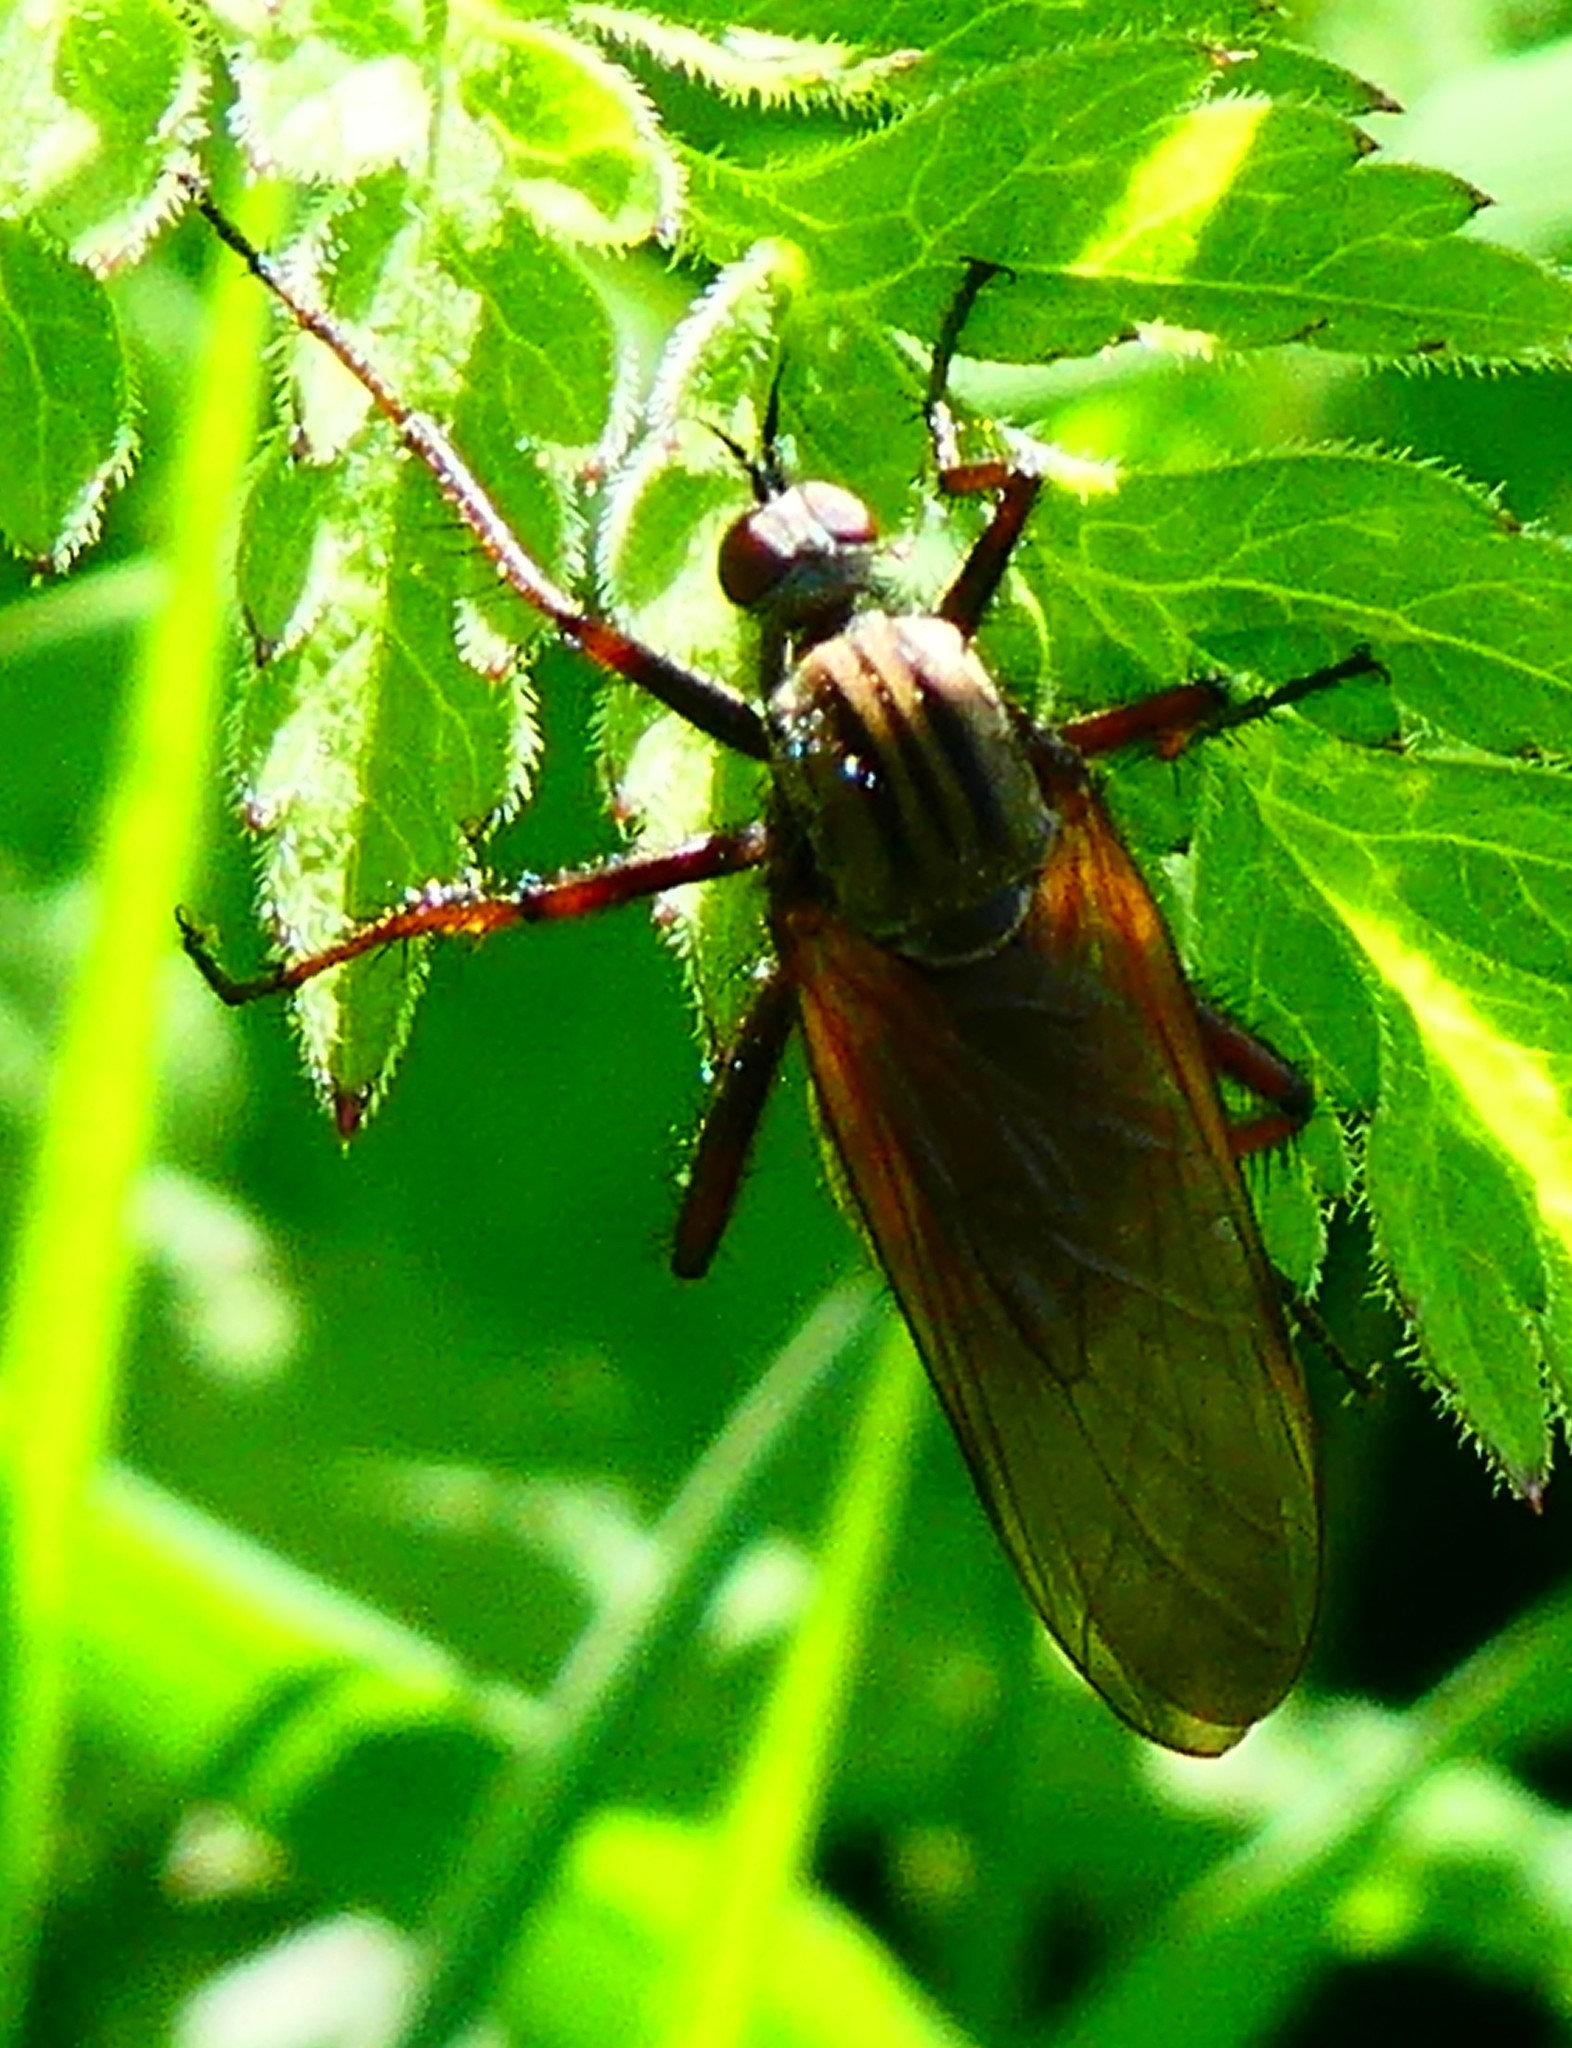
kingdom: Animalia
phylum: Arthropoda
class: Insecta
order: Diptera
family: Empididae
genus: Empis
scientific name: Empis tessellata
